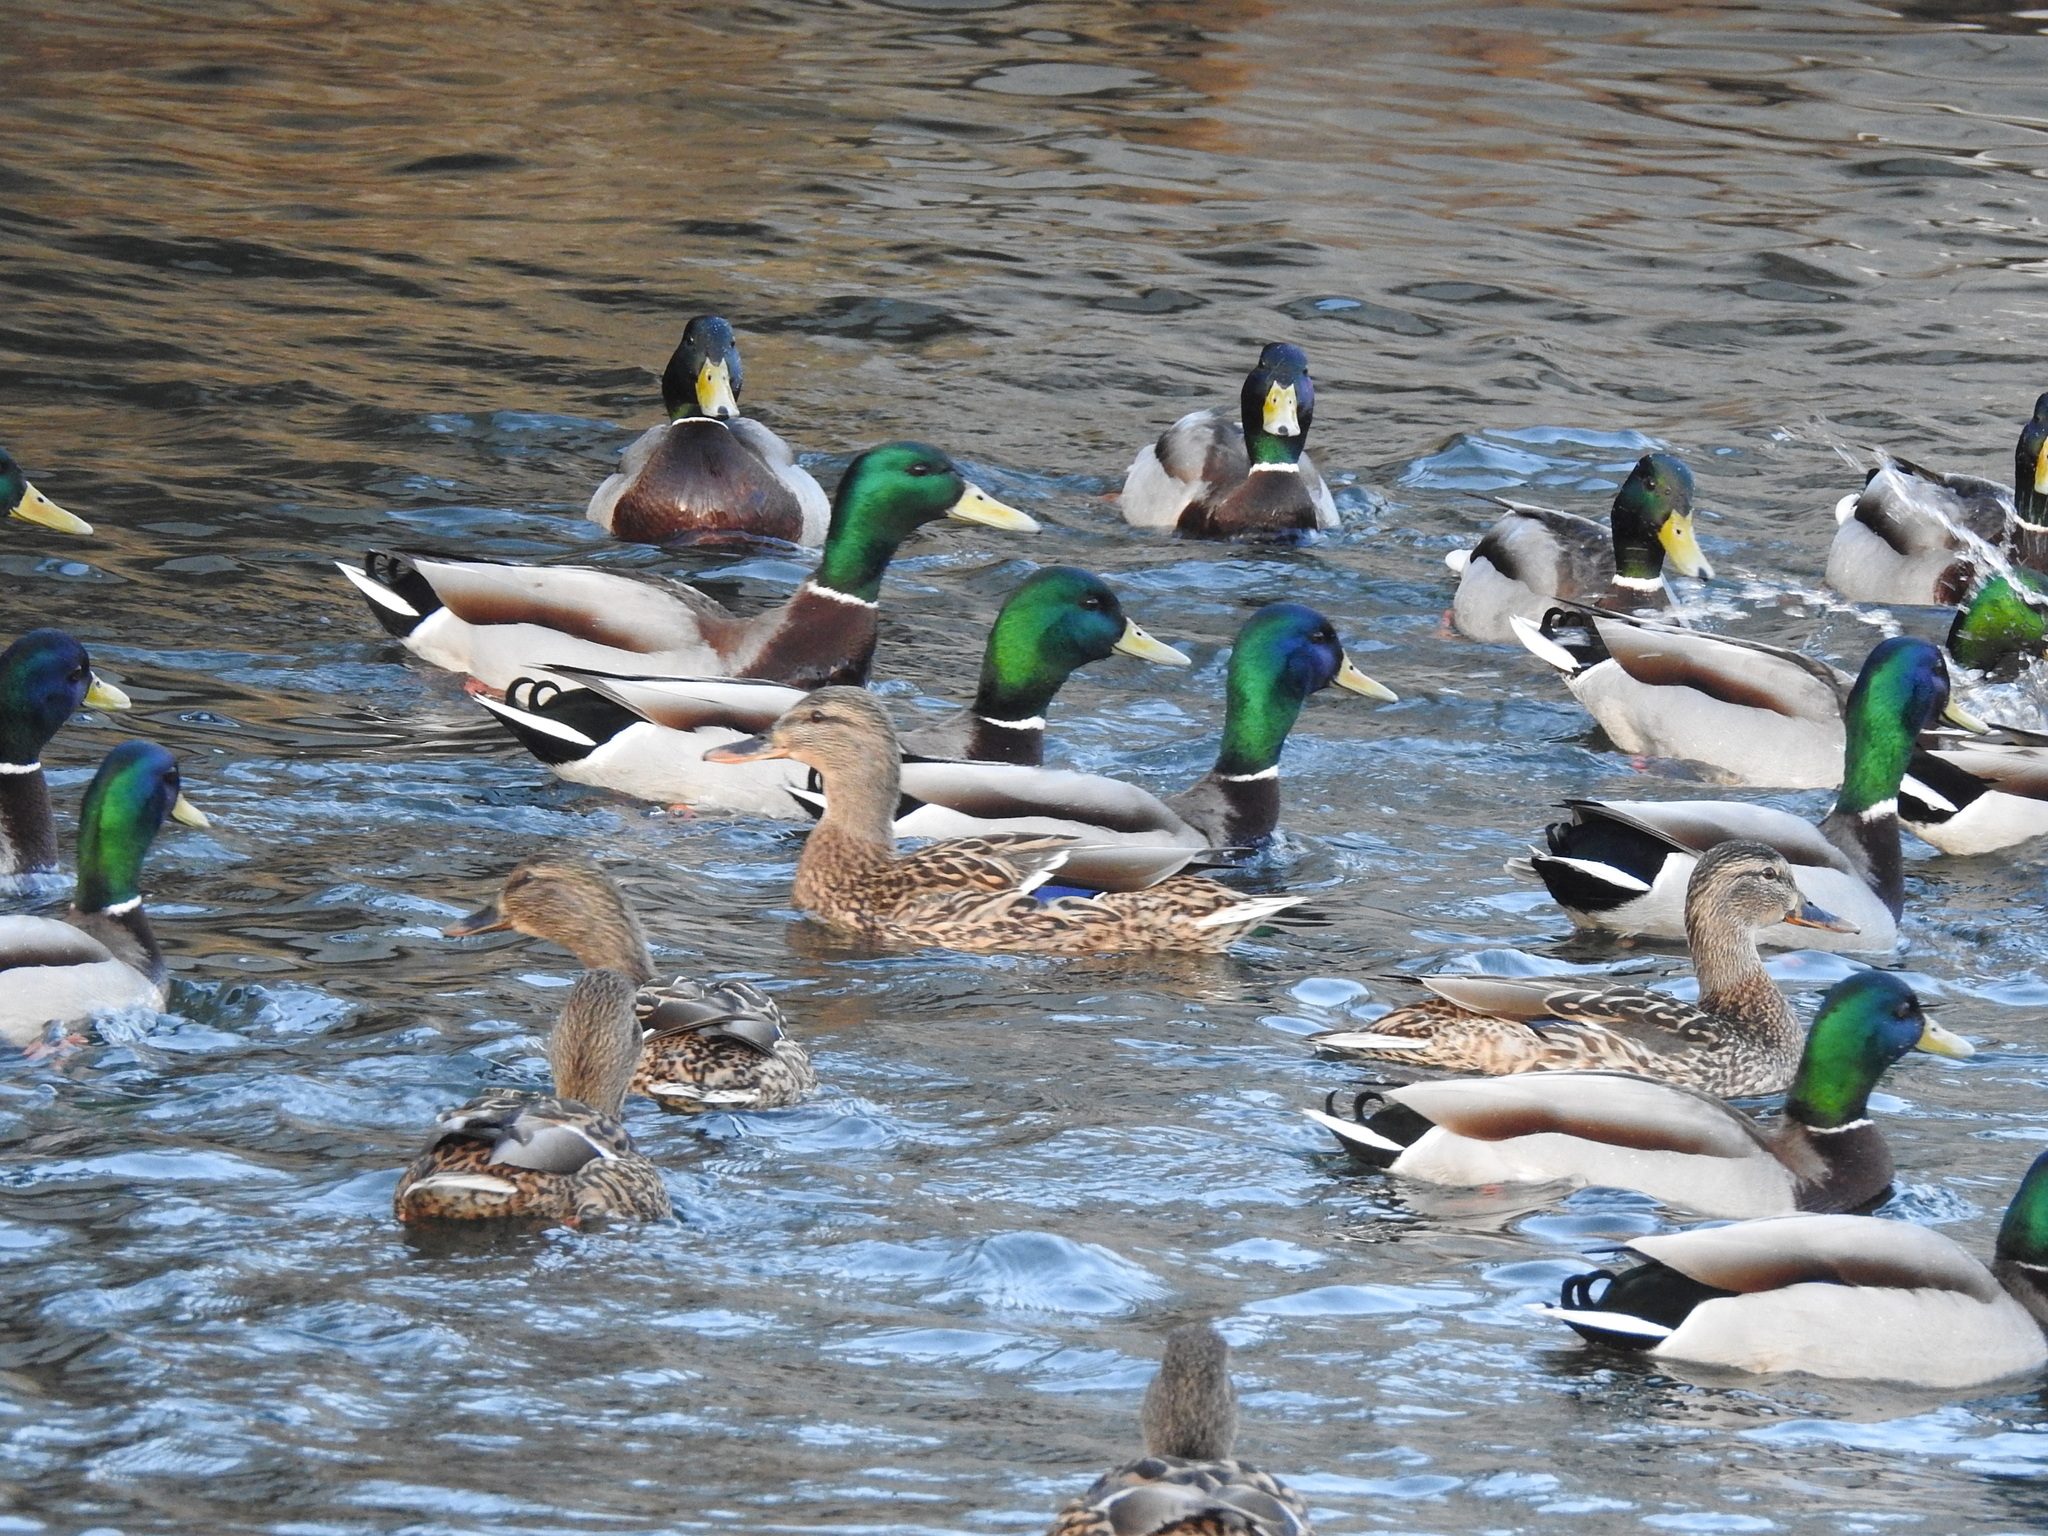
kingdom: Animalia
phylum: Chordata
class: Aves
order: Anseriformes
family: Anatidae
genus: Anas
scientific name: Anas platyrhynchos
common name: Mallard
